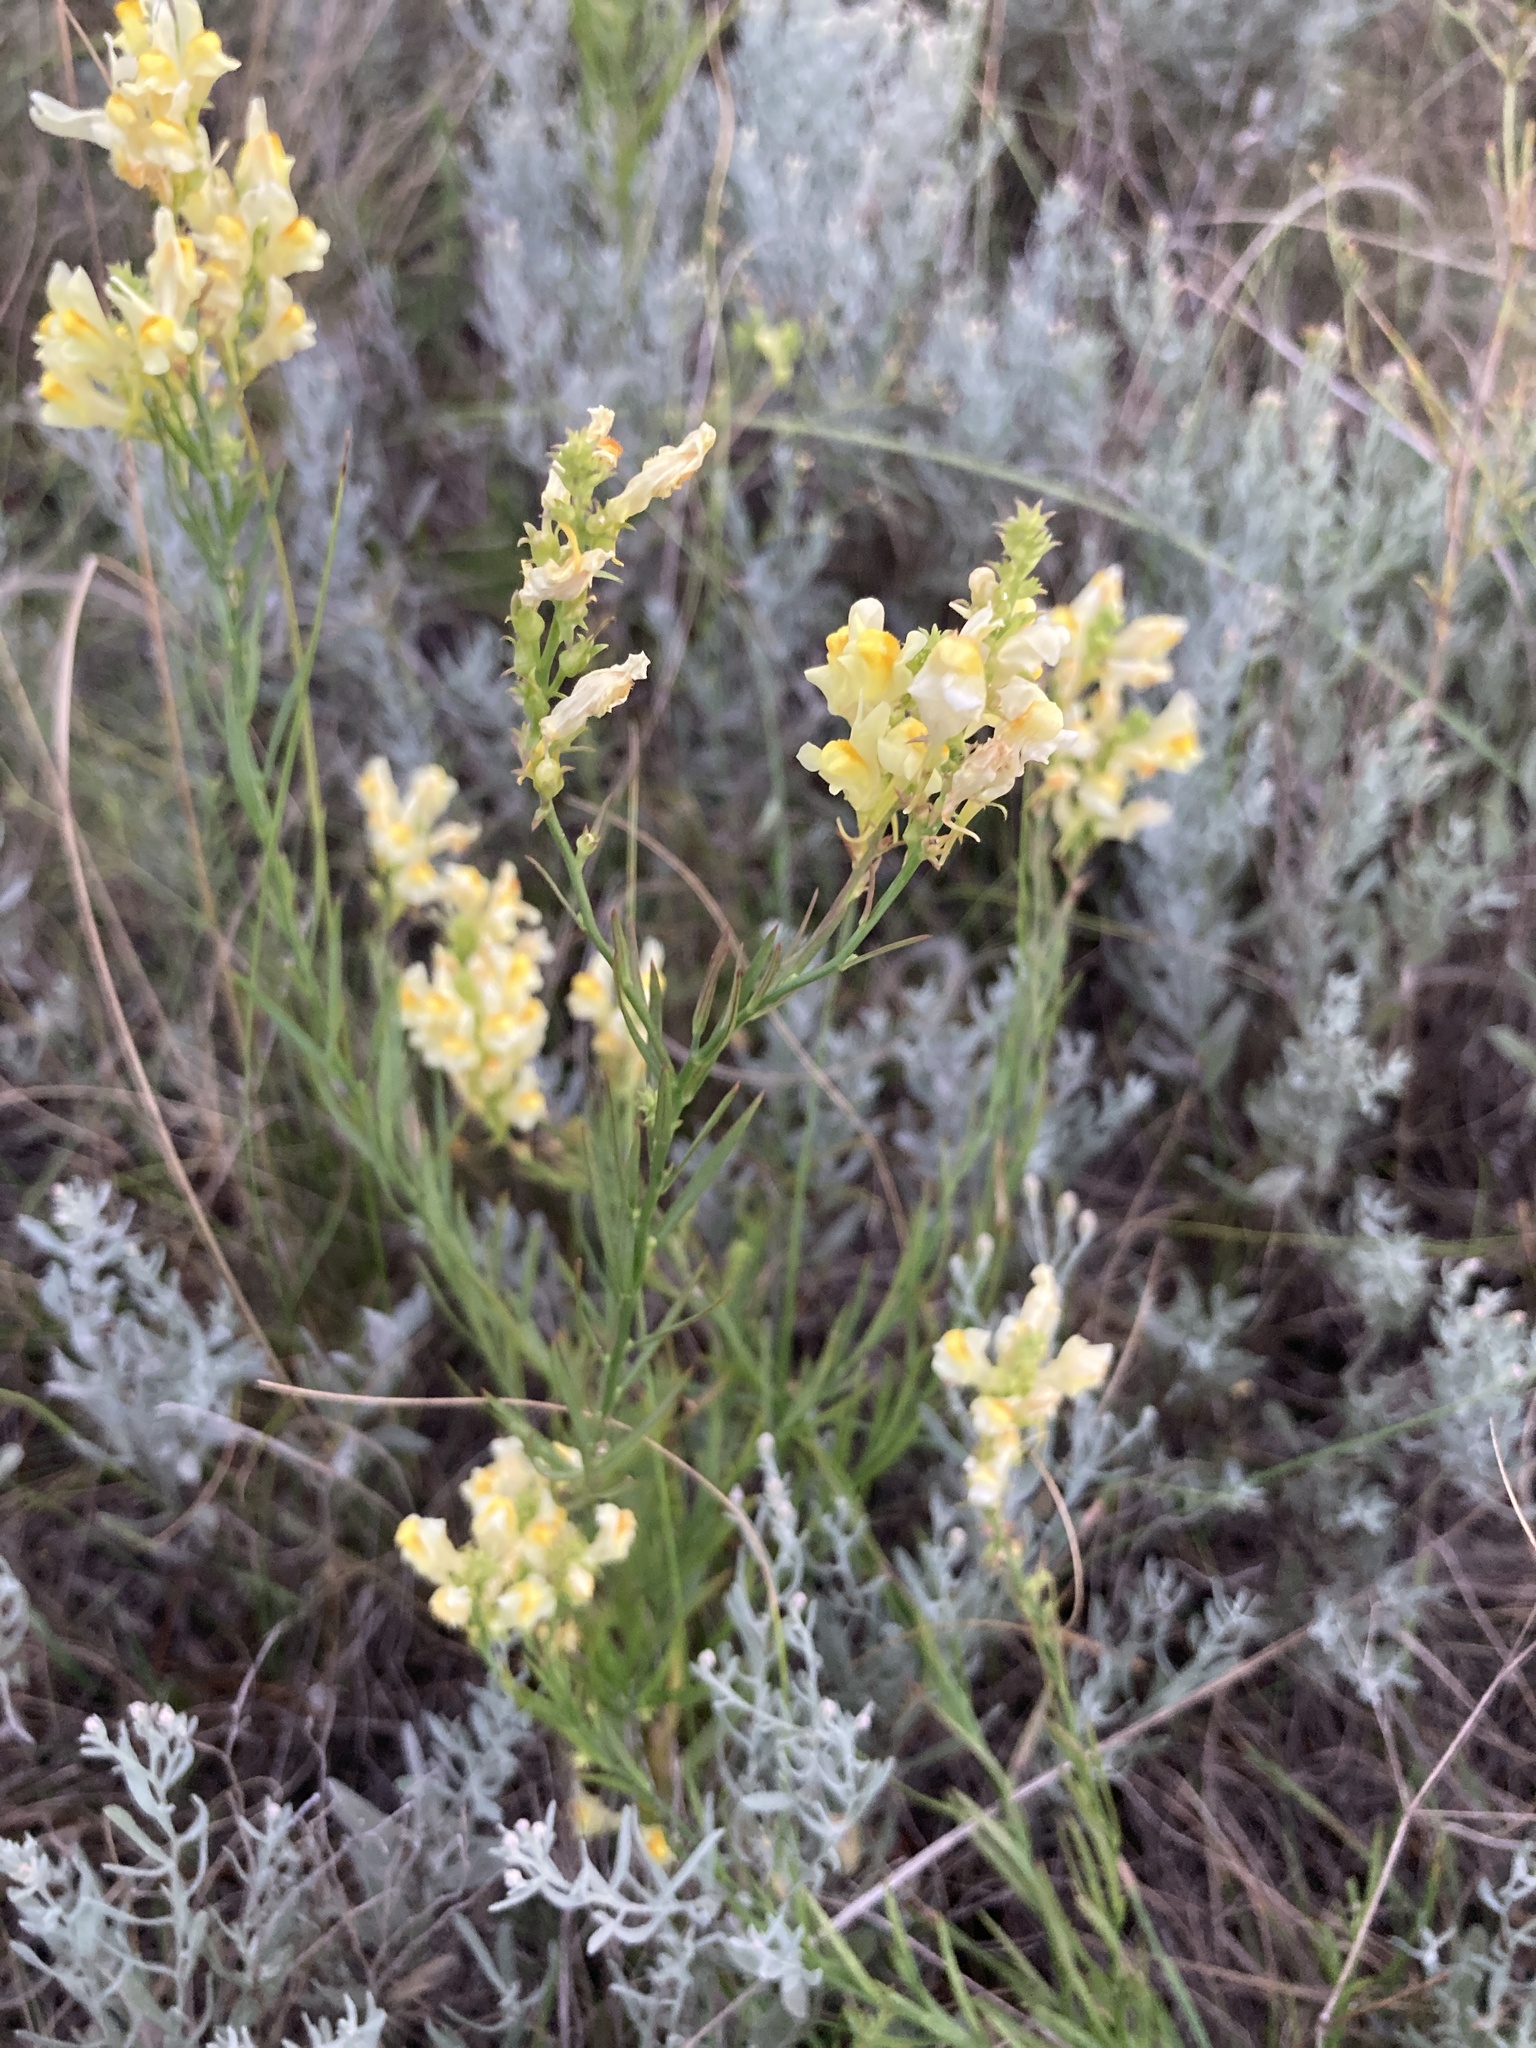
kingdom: Plantae
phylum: Tracheophyta
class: Magnoliopsida
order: Lamiales
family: Plantaginaceae
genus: Linaria
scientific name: Linaria vulgaris
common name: Butter and eggs
